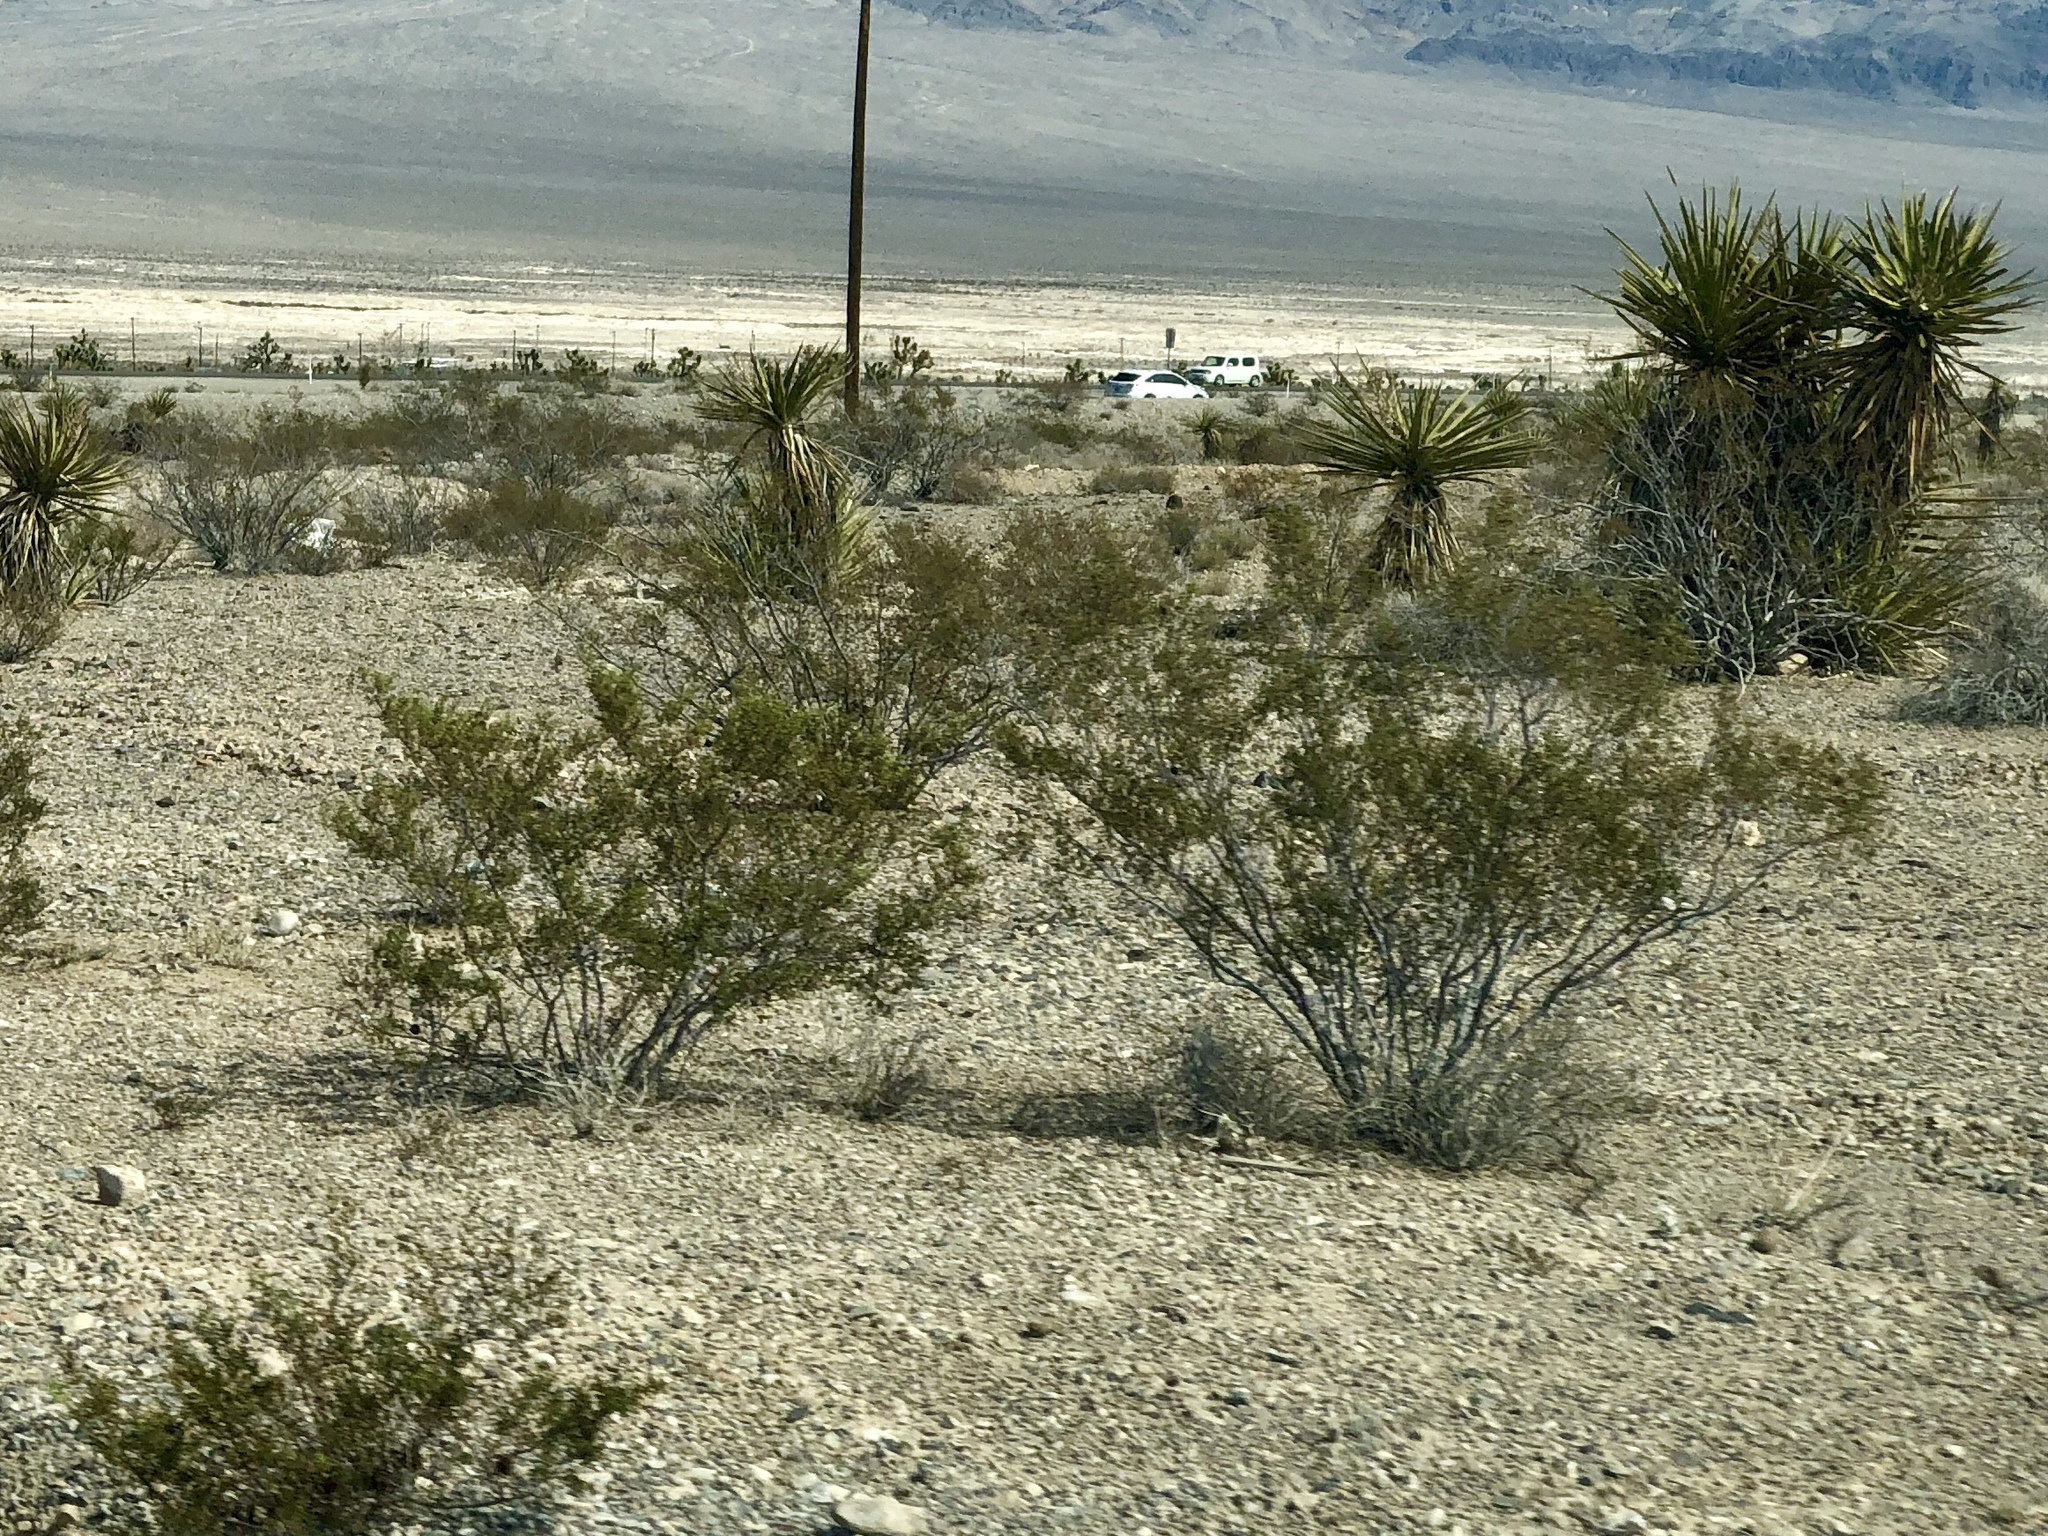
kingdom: Plantae
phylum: Tracheophyta
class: Magnoliopsida
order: Zygophyllales
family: Zygophyllaceae
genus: Larrea
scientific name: Larrea tridentata
